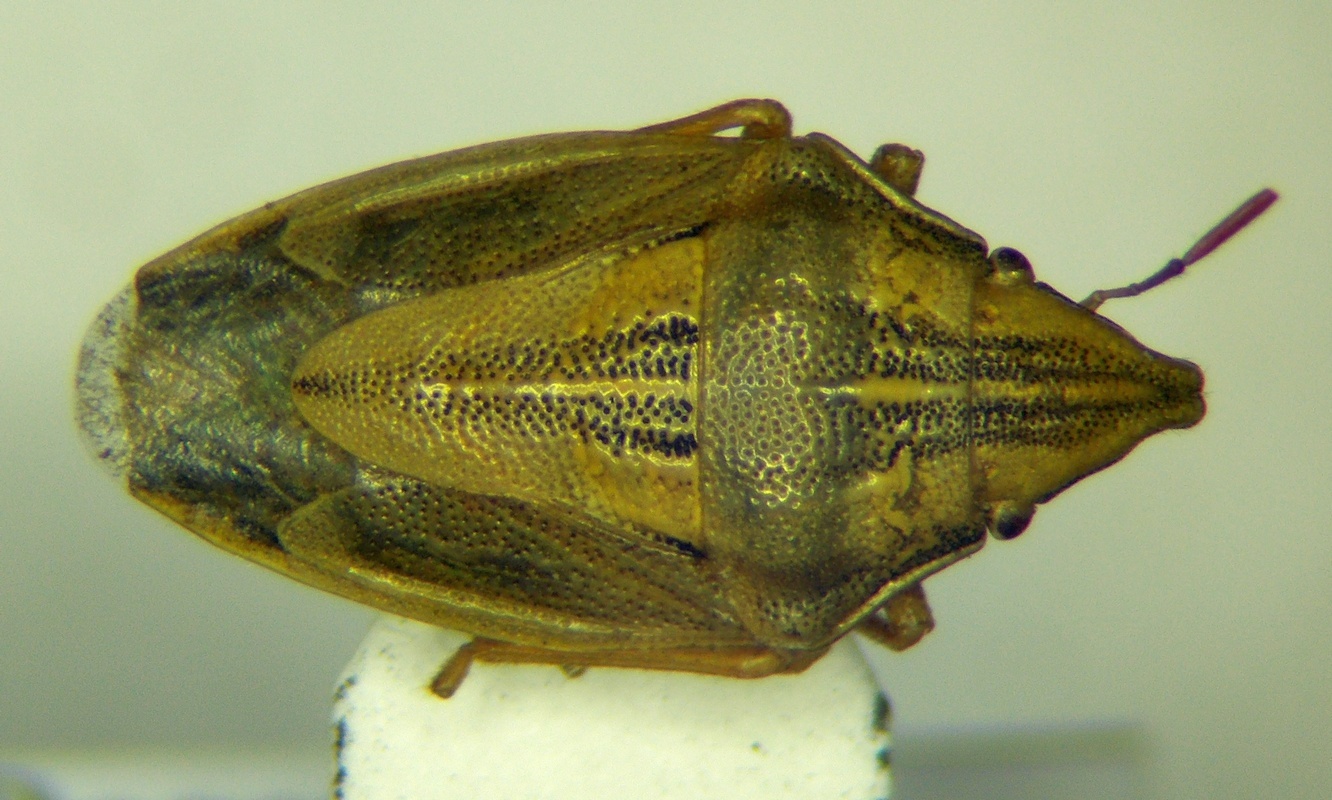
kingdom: Animalia
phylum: Arthropoda
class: Insecta
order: Hemiptera
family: Pentatomidae
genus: Aelia
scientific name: Aelia acuminata
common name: Bishop's mitre
